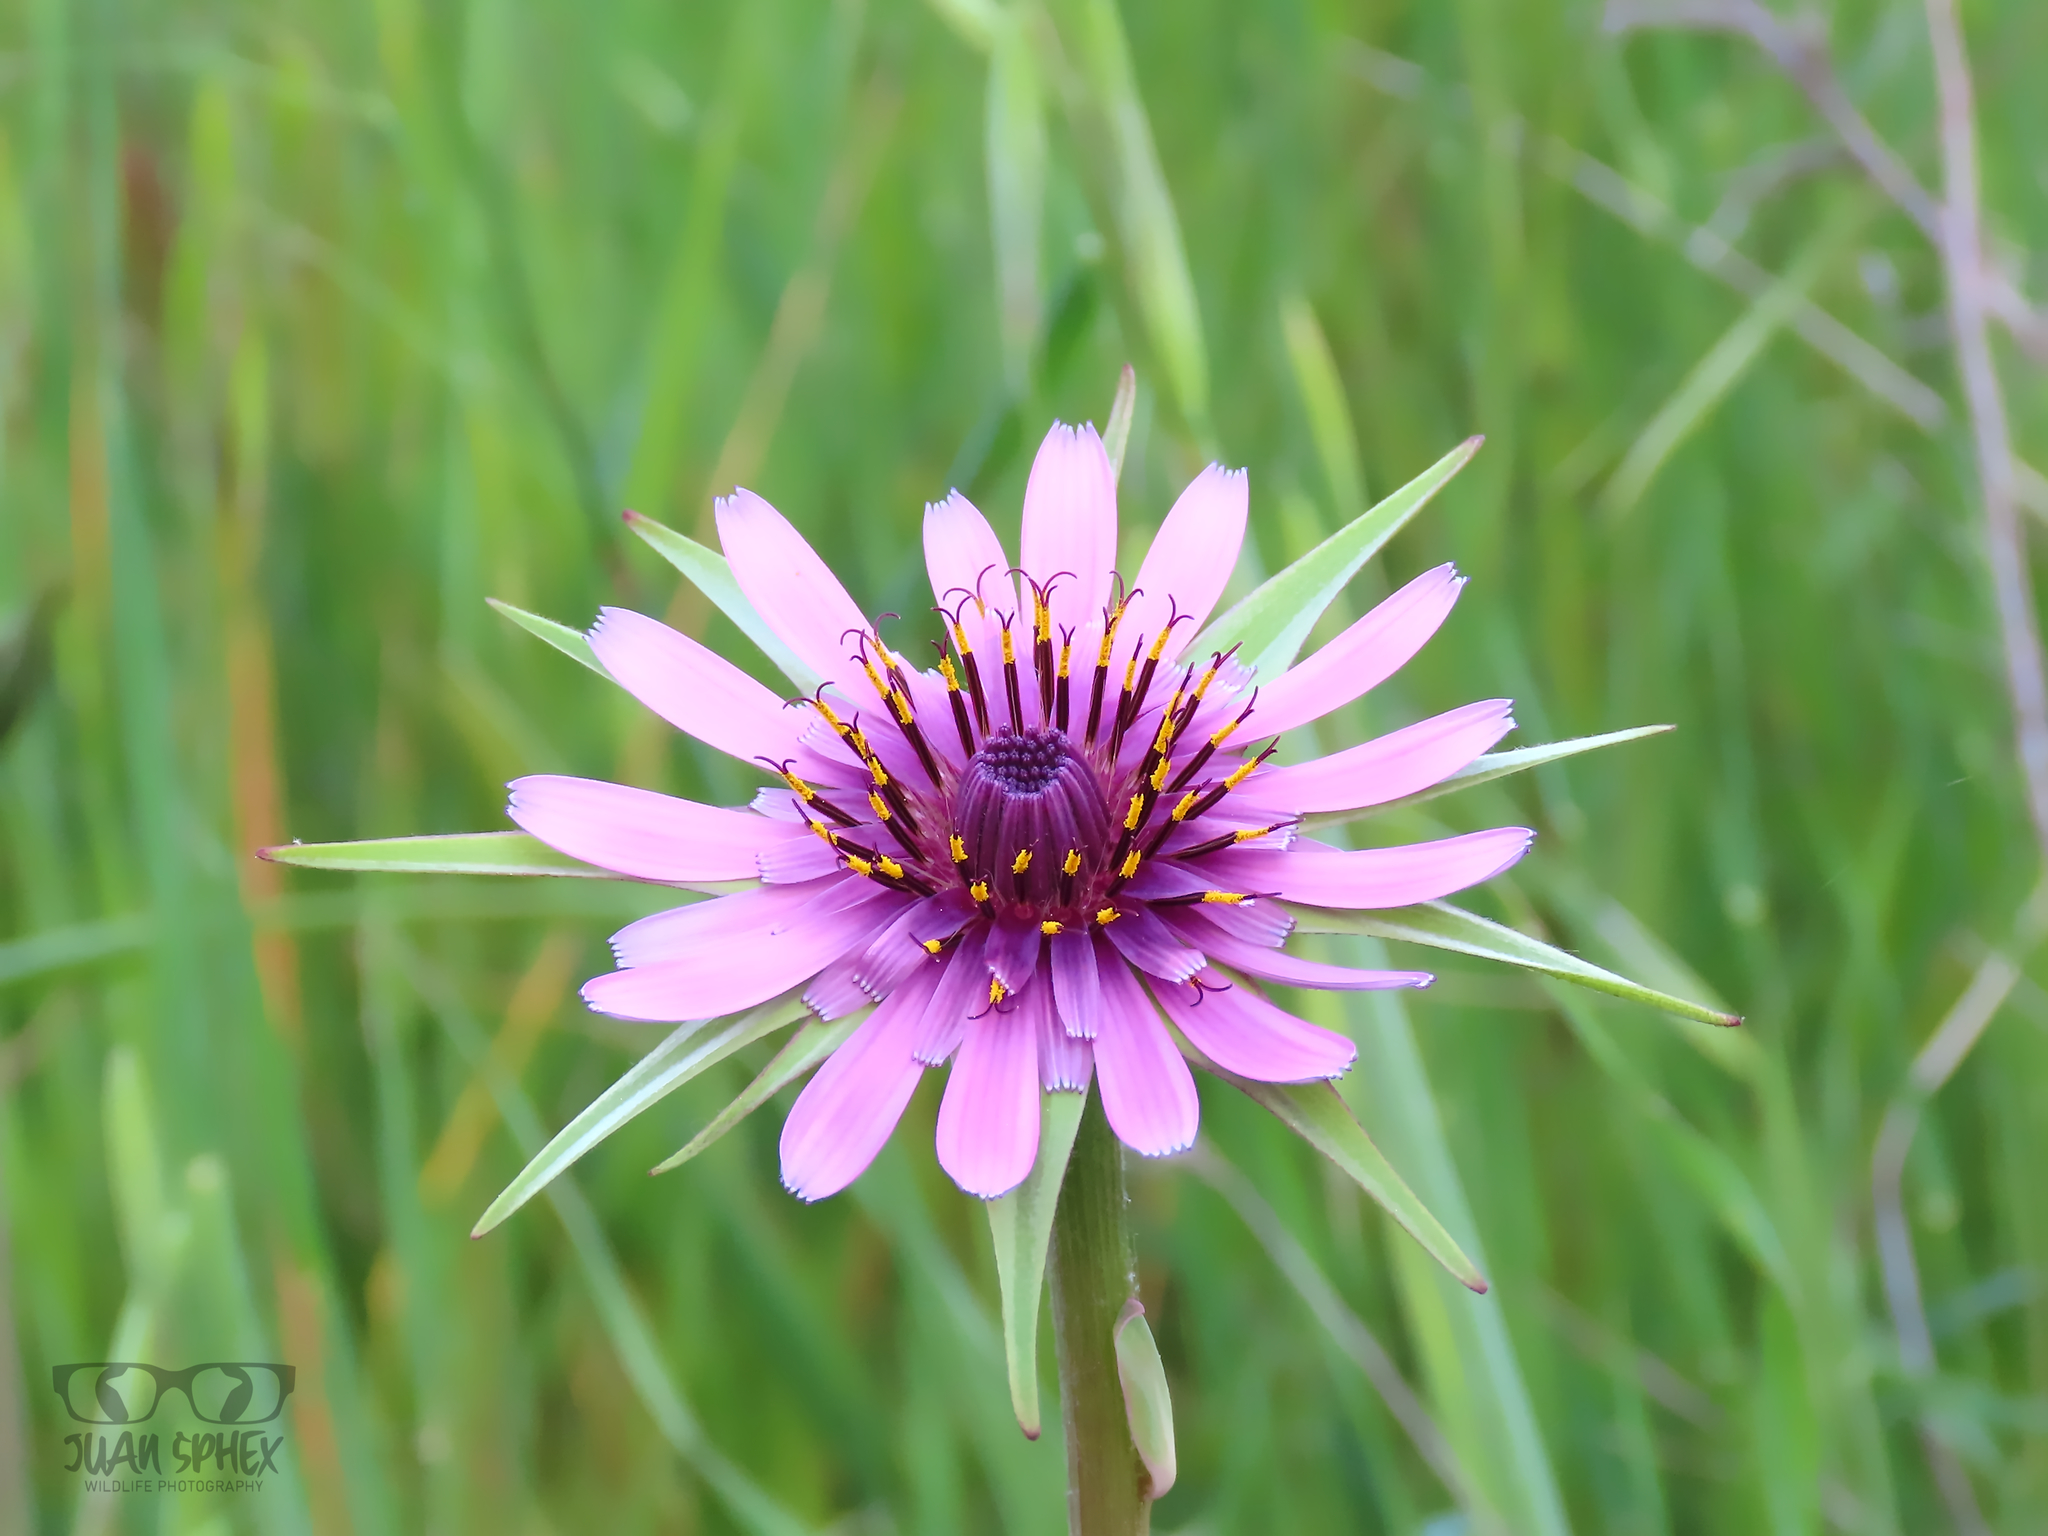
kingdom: Plantae
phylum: Tracheophyta
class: Magnoliopsida
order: Asterales
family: Asteraceae
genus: Tragopogon
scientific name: Tragopogon porrifolius
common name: Salsify
